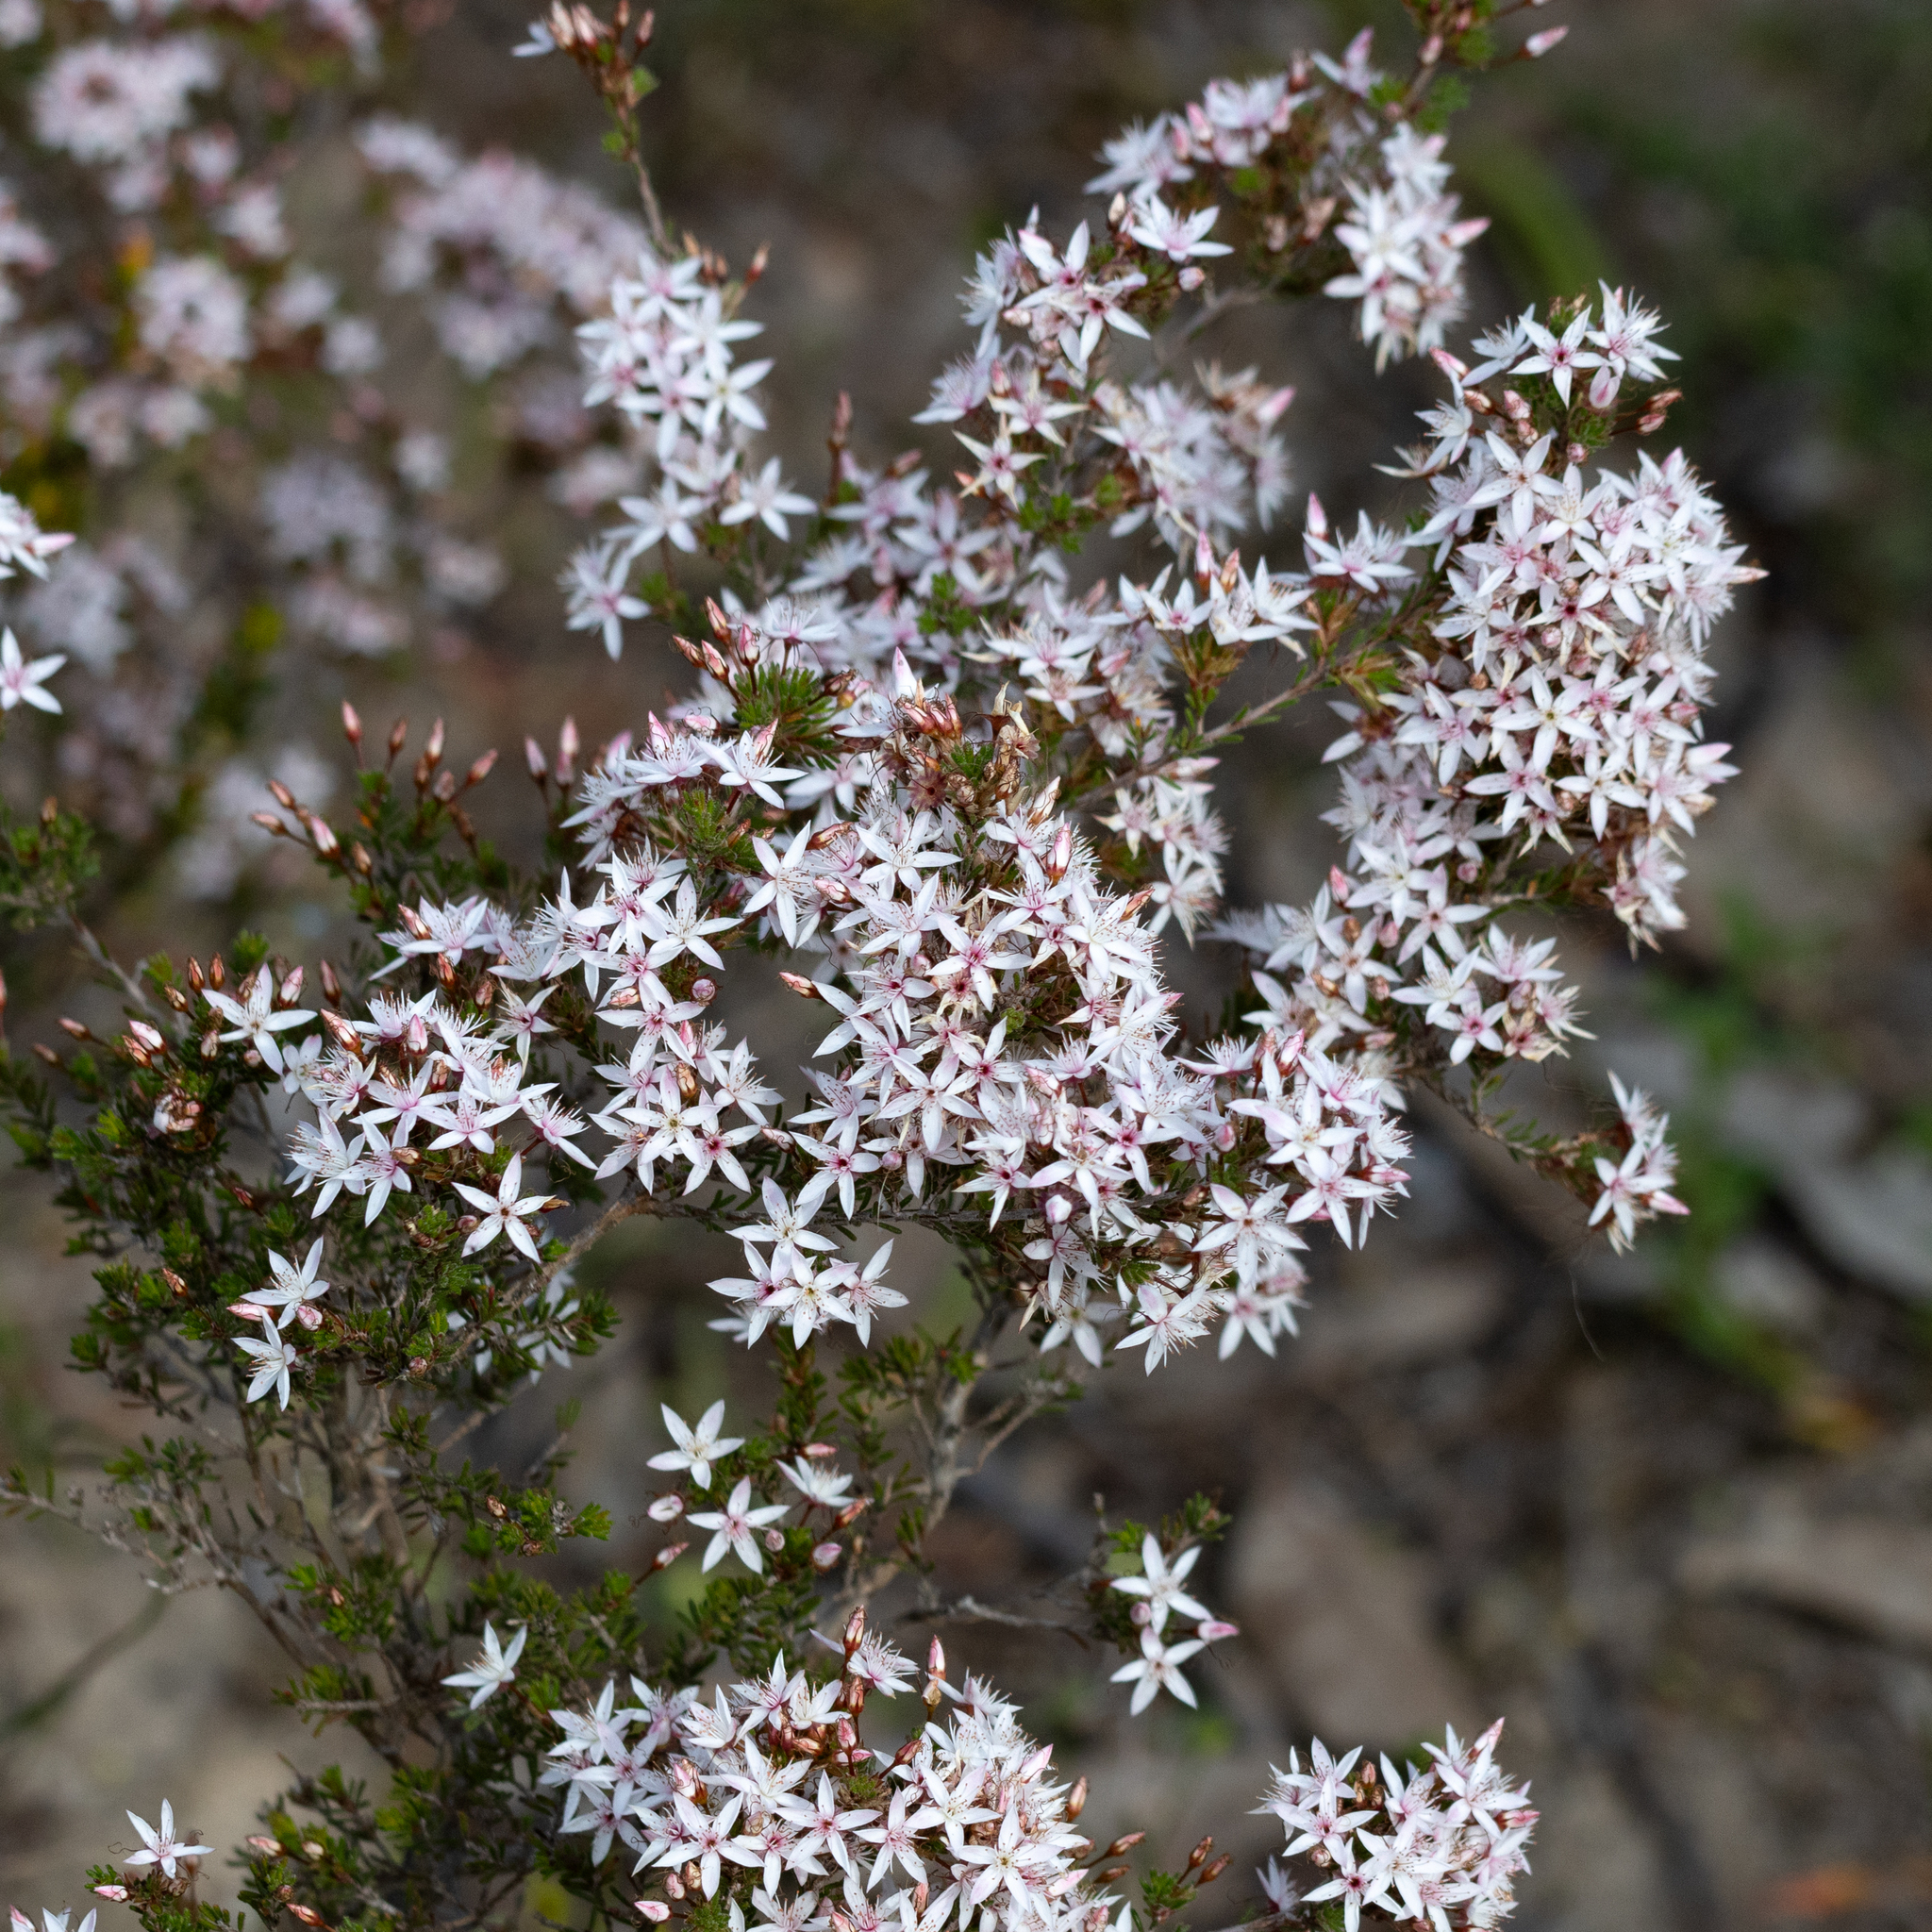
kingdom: Plantae
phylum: Tracheophyta
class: Magnoliopsida
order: Myrtales
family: Myrtaceae
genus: Calytrix
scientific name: Calytrix tetragona
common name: Common fringe myrtle
